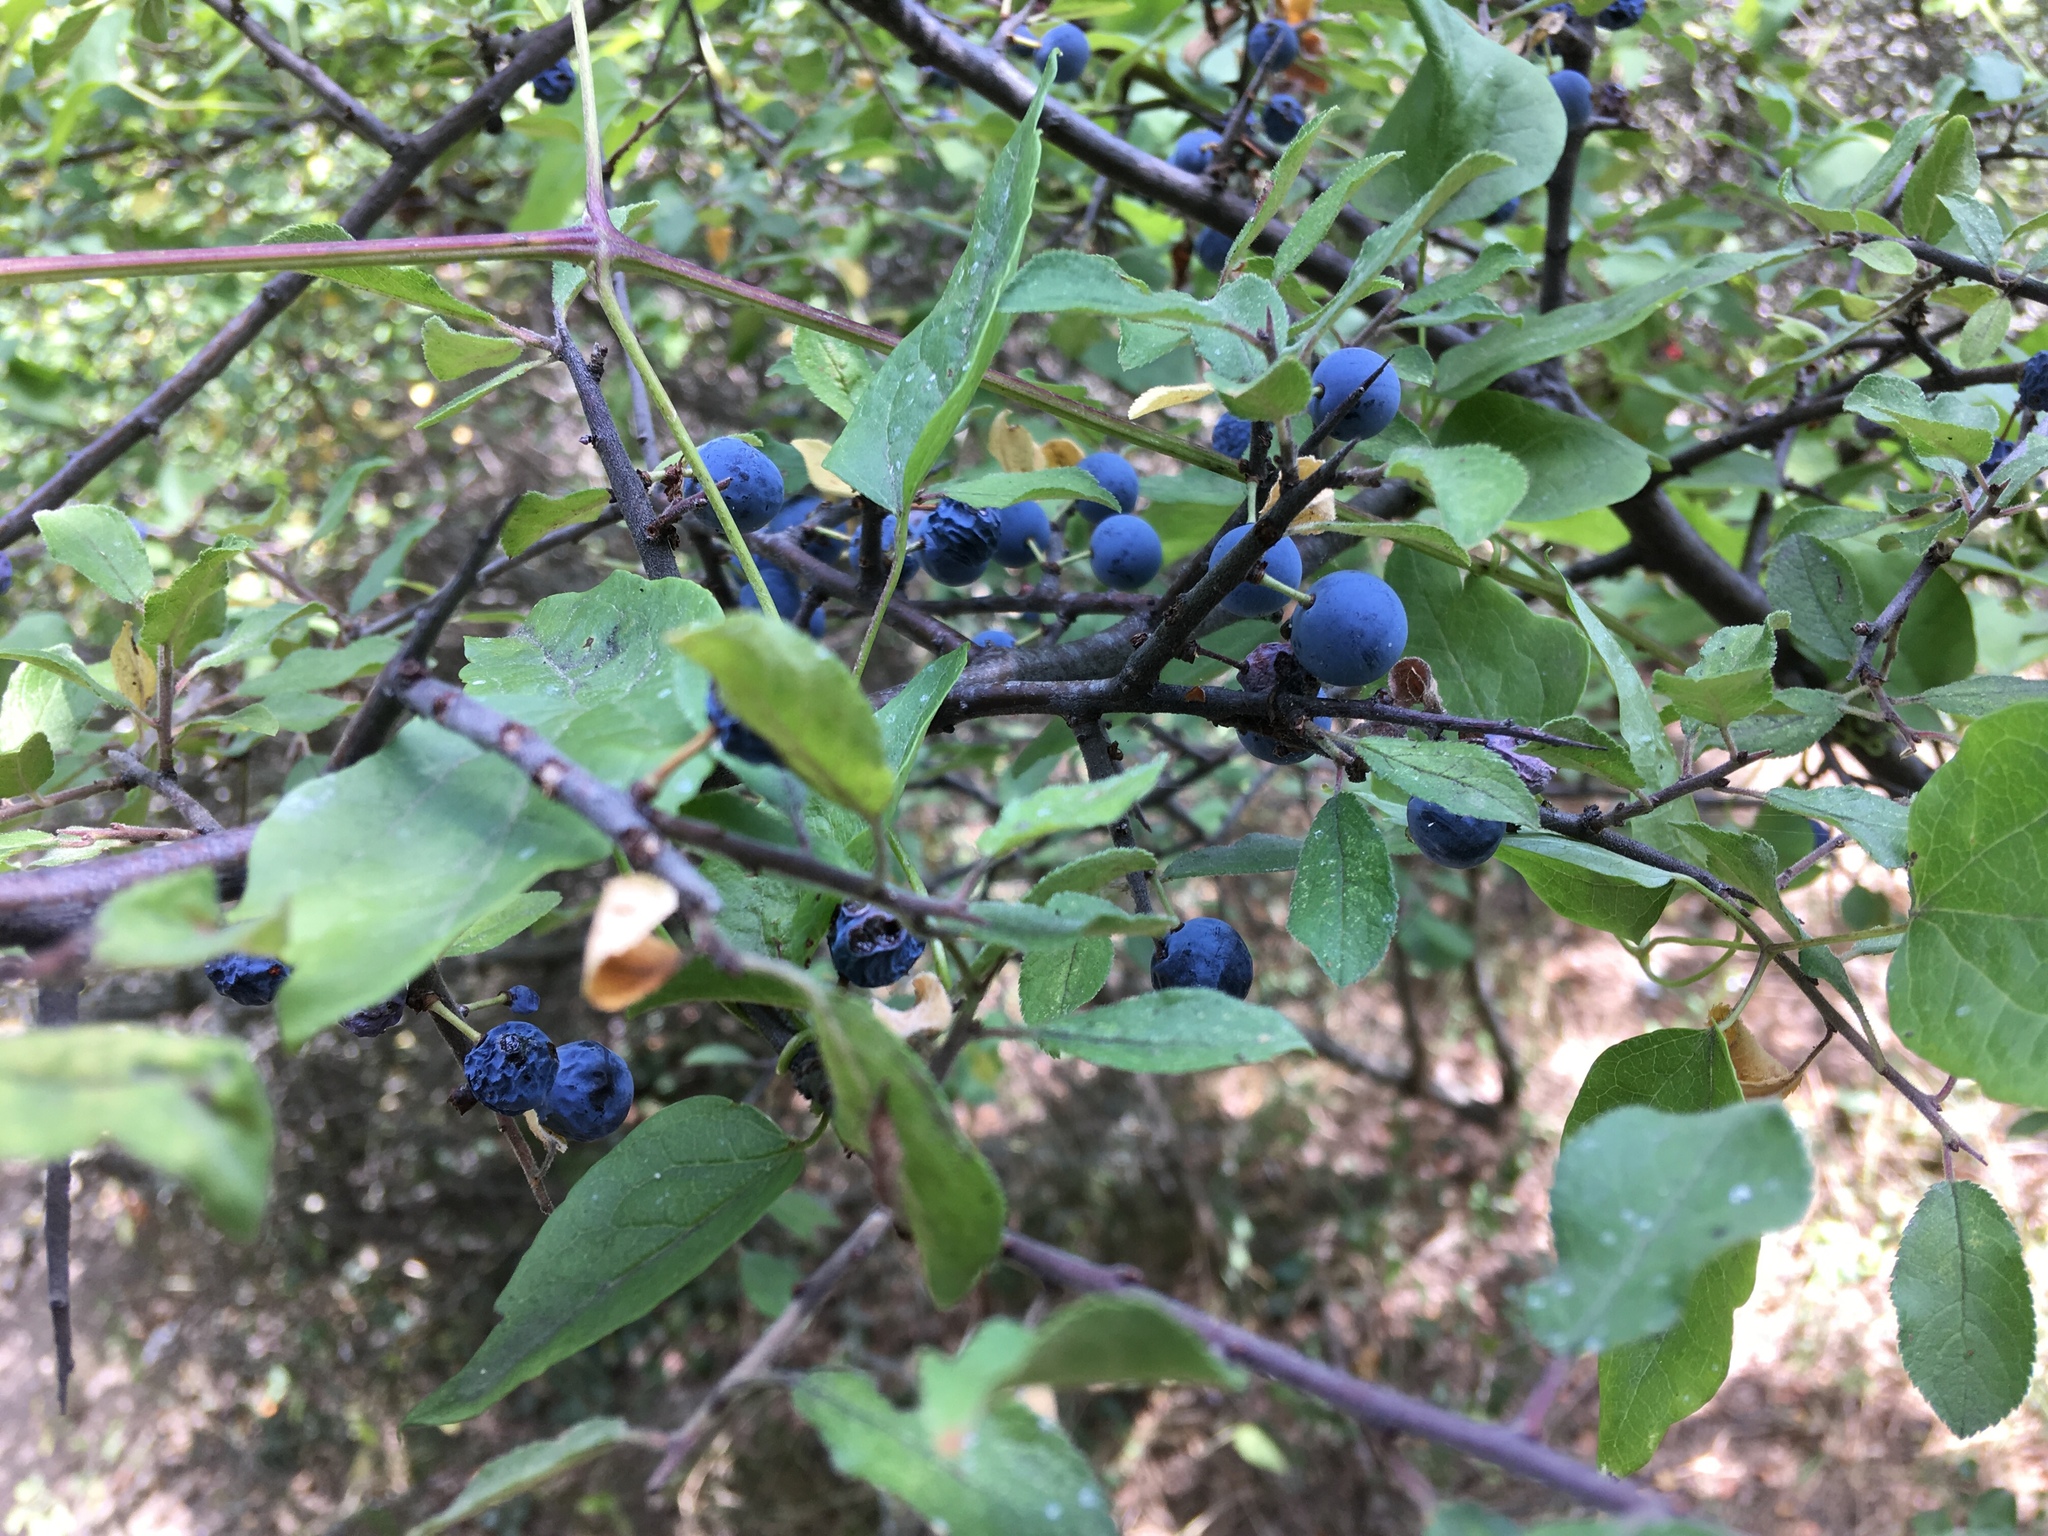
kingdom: Plantae
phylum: Tracheophyta
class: Magnoliopsida
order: Rosales
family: Rosaceae
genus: Prunus
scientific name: Prunus spinosa
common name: Blackthorn
